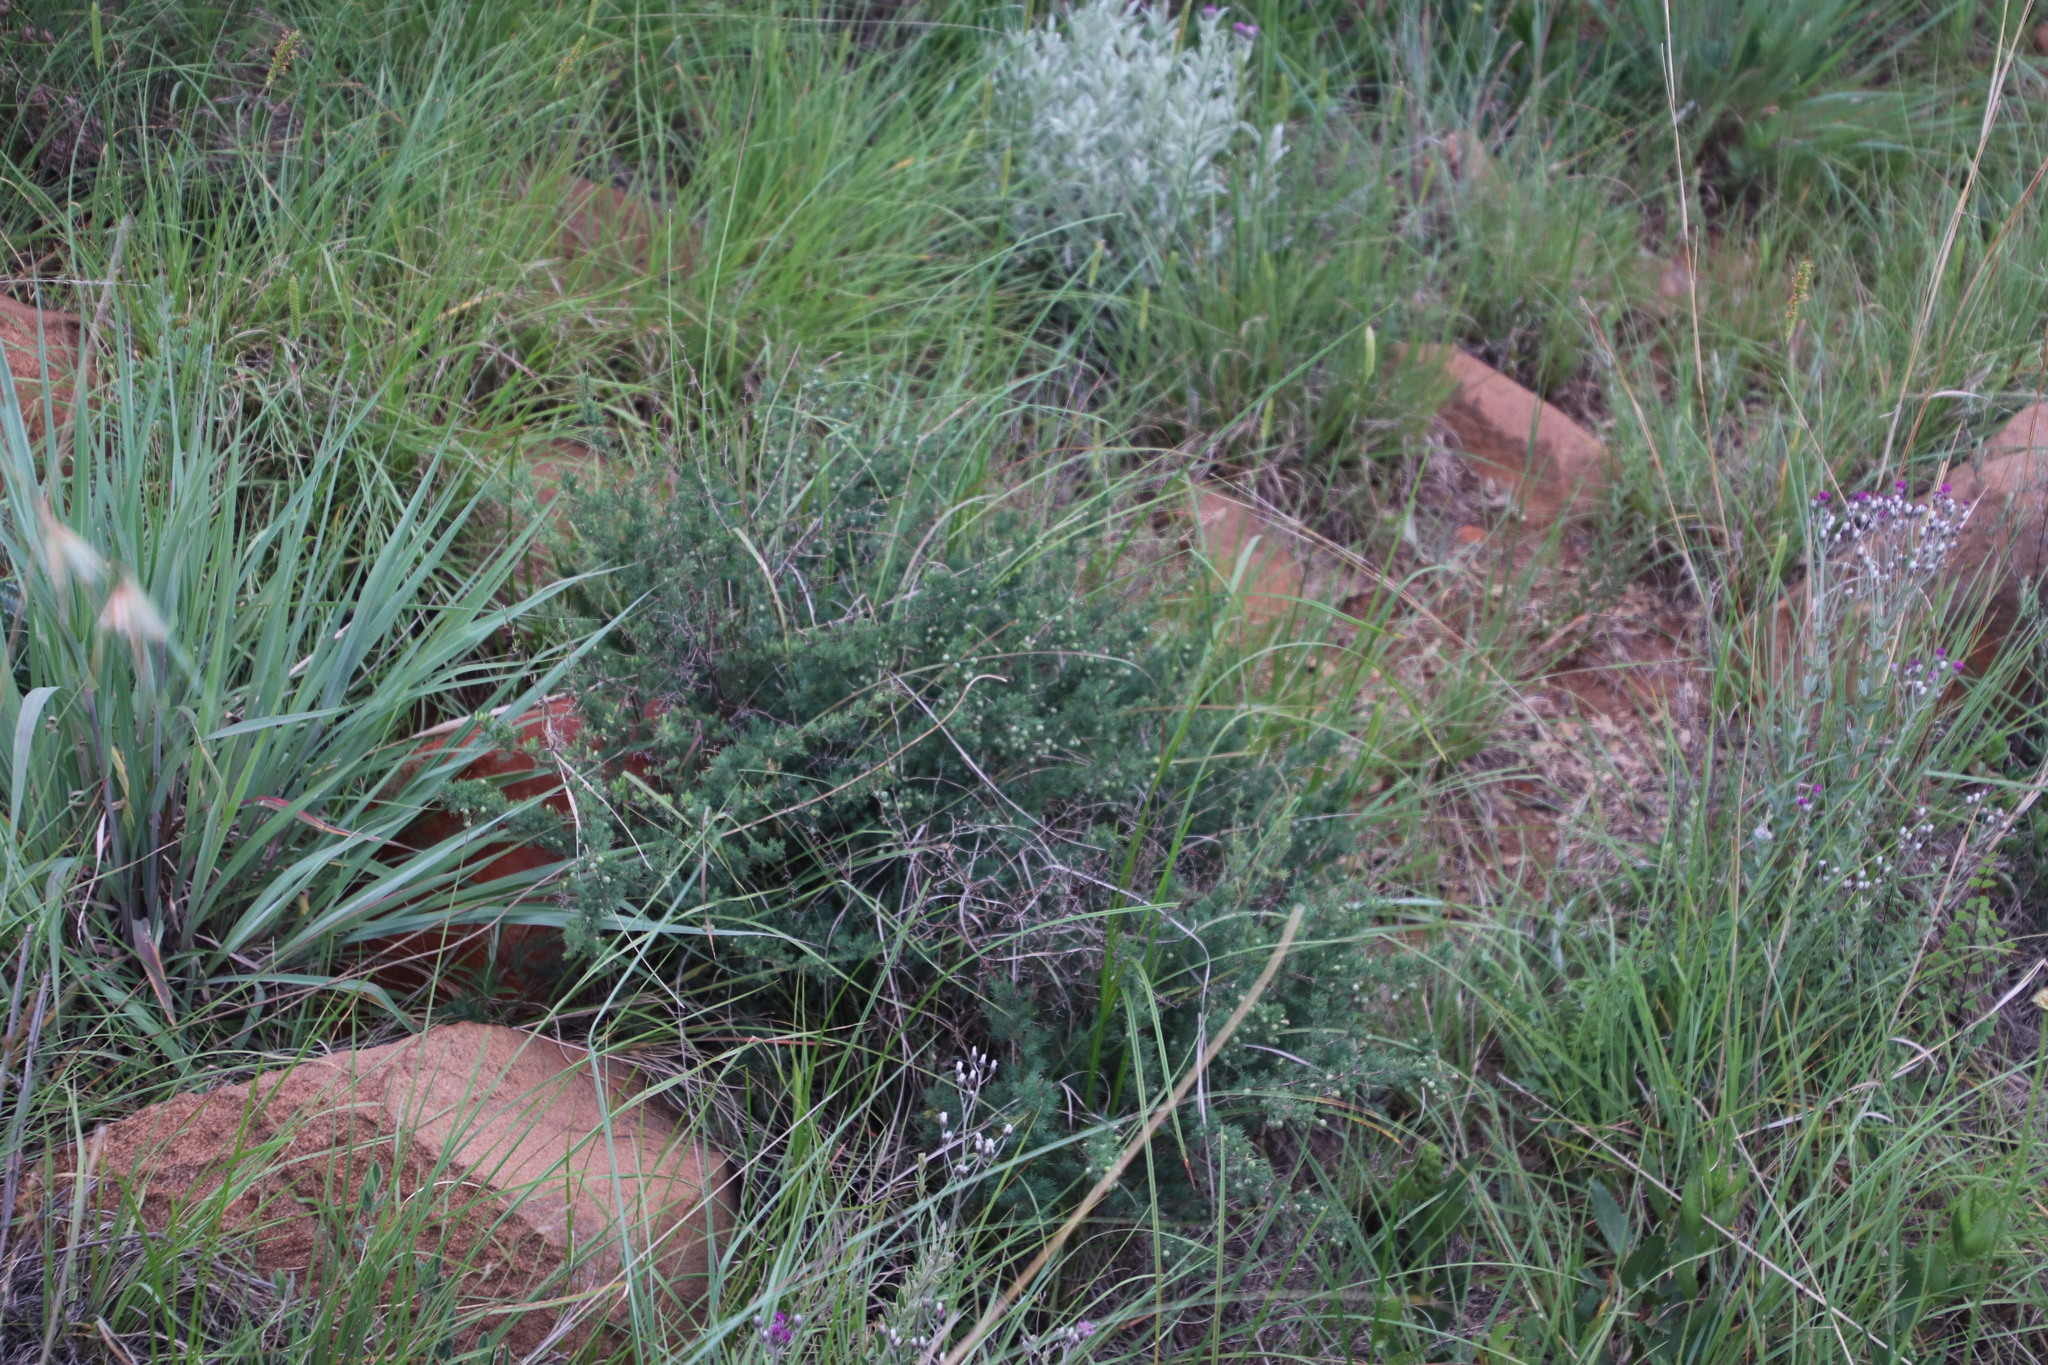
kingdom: Plantae
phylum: Tracheophyta
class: Liliopsida
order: Asparagales
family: Asparagaceae
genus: Asparagus
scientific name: Asparagus suaveolens
